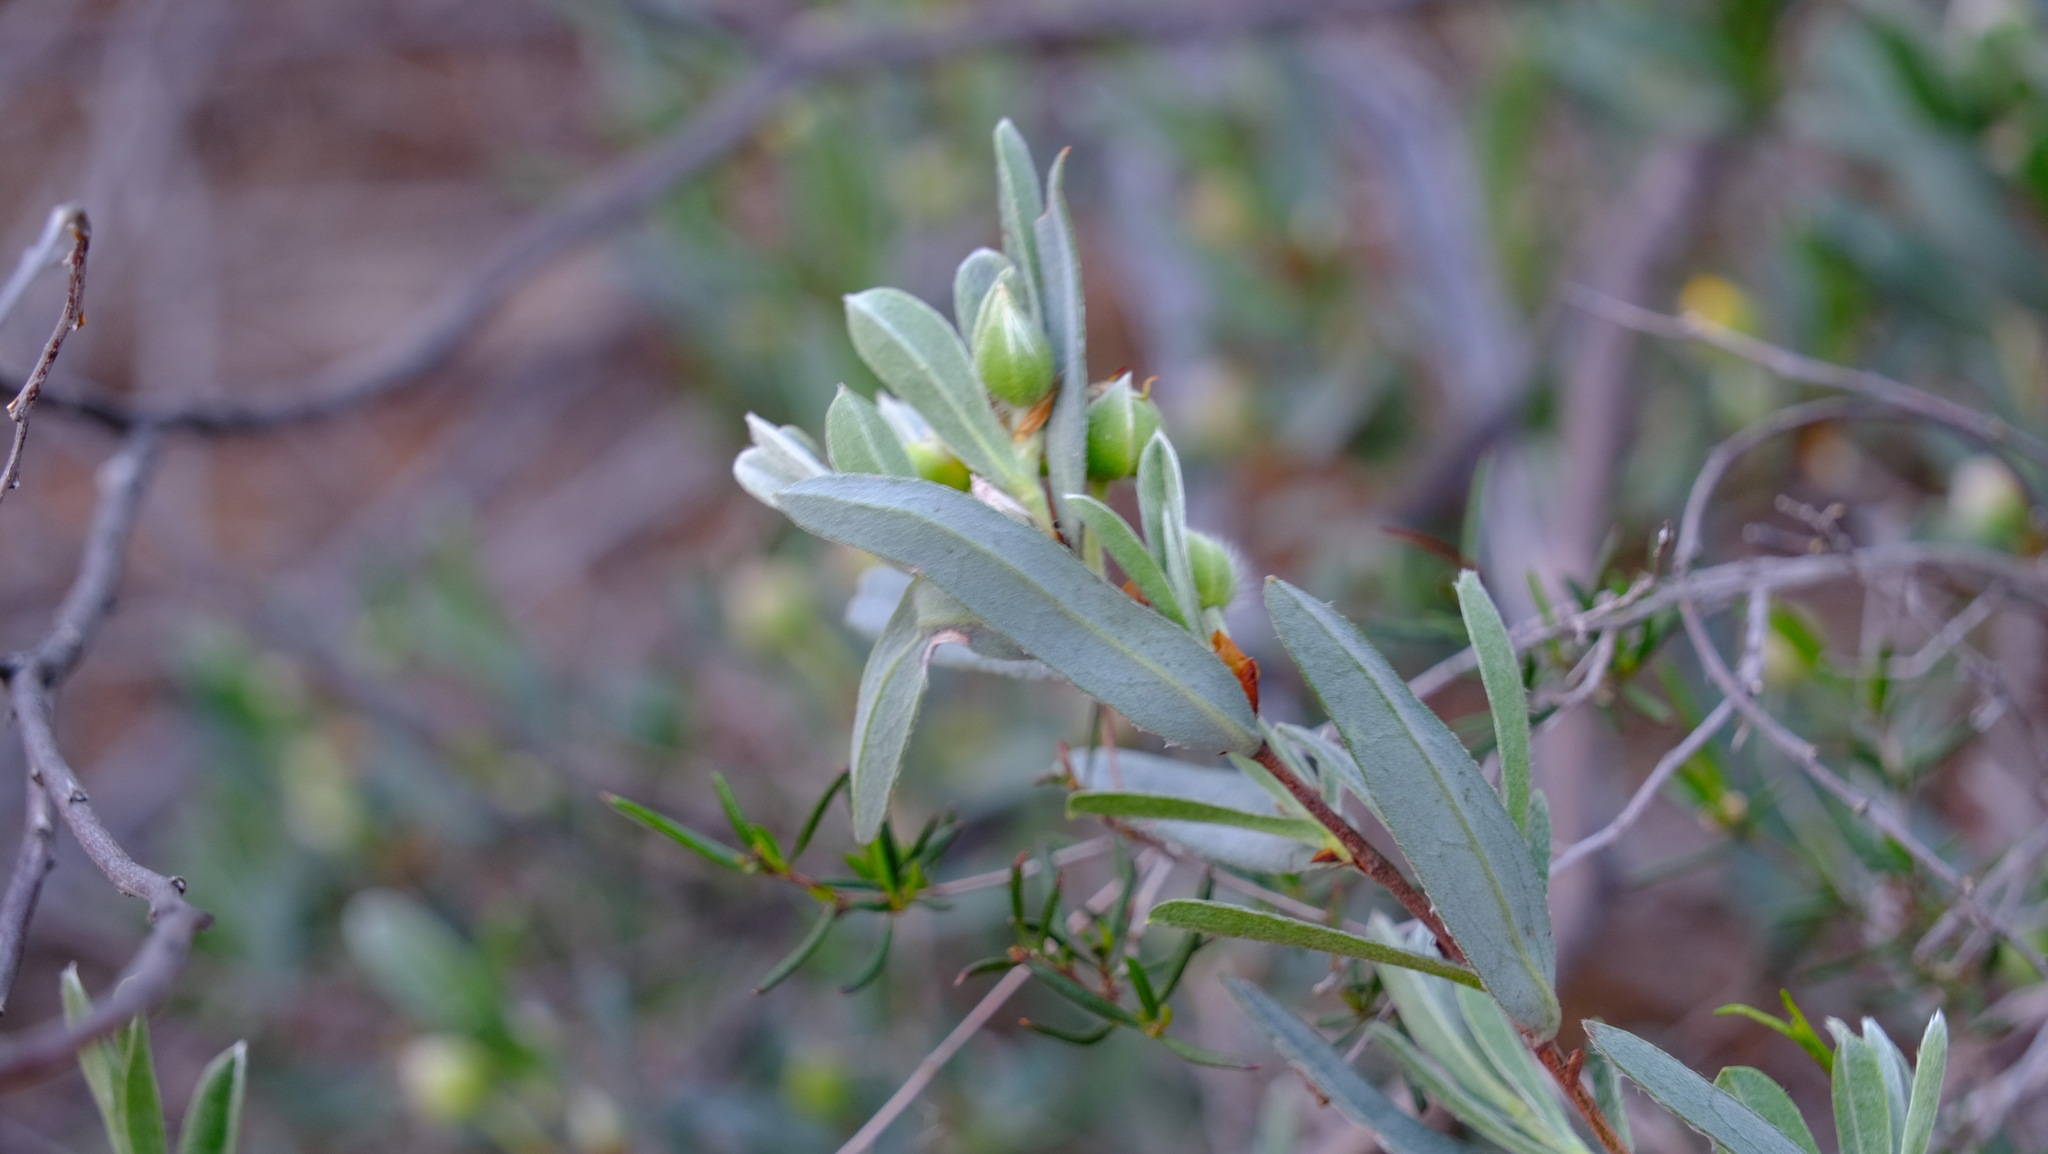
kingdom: Plantae
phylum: Tracheophyta
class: Magnoliopsida
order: Dilleniales
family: Dilleniaceae
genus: Hibbertia
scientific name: Hibbertia potentilliflora
